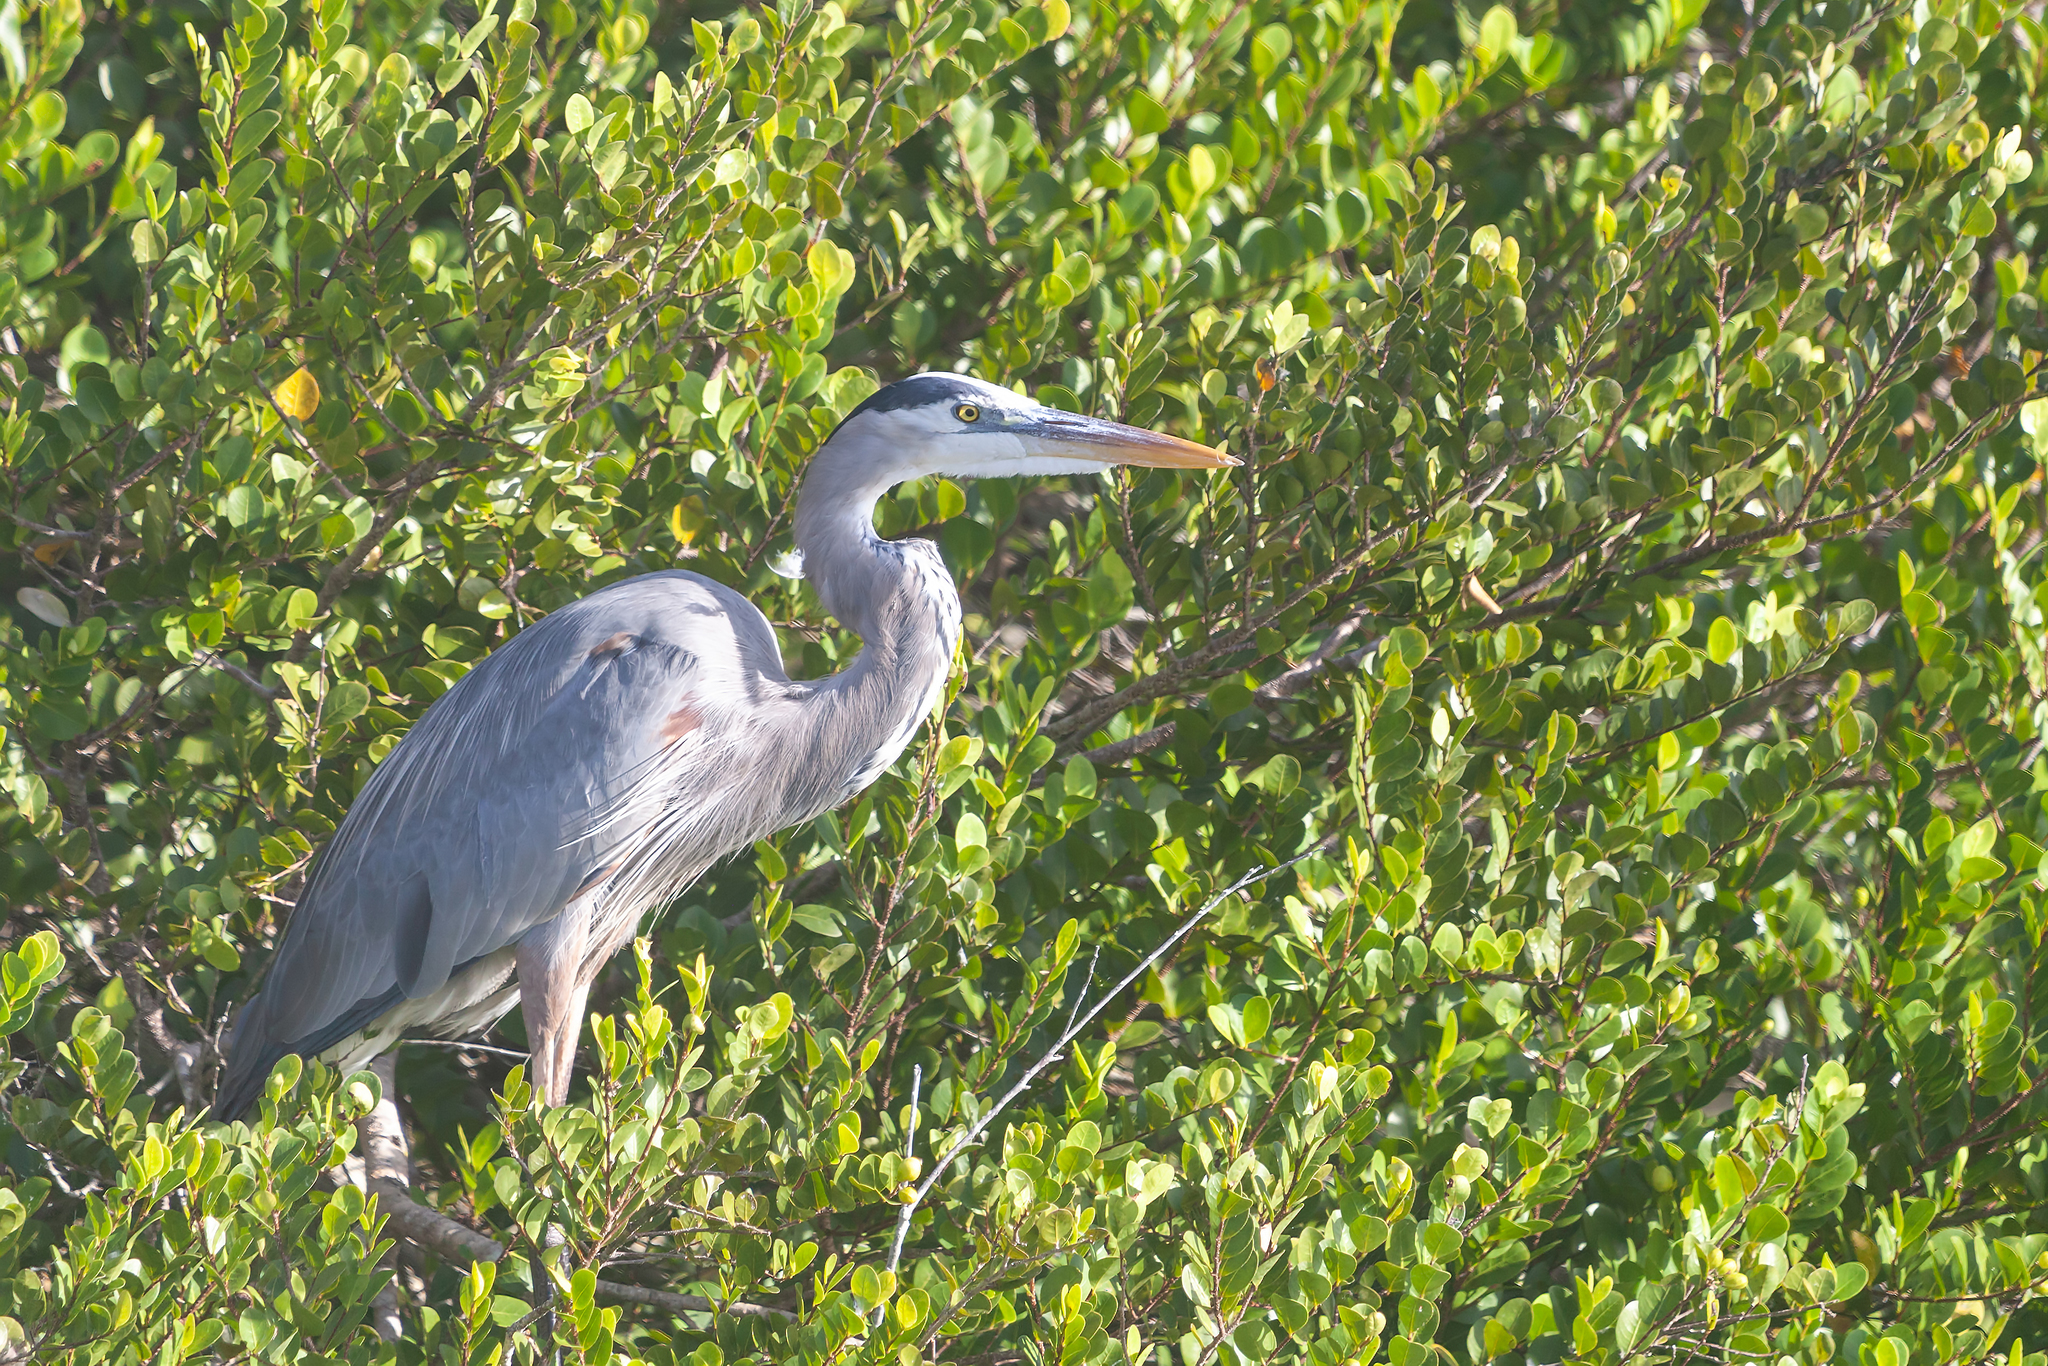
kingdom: Animalia
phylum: Chordata
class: Aves
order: Pelecaniformes
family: Ardeidae
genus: Ardea
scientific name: Ardea herodias
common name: Great blue heron
